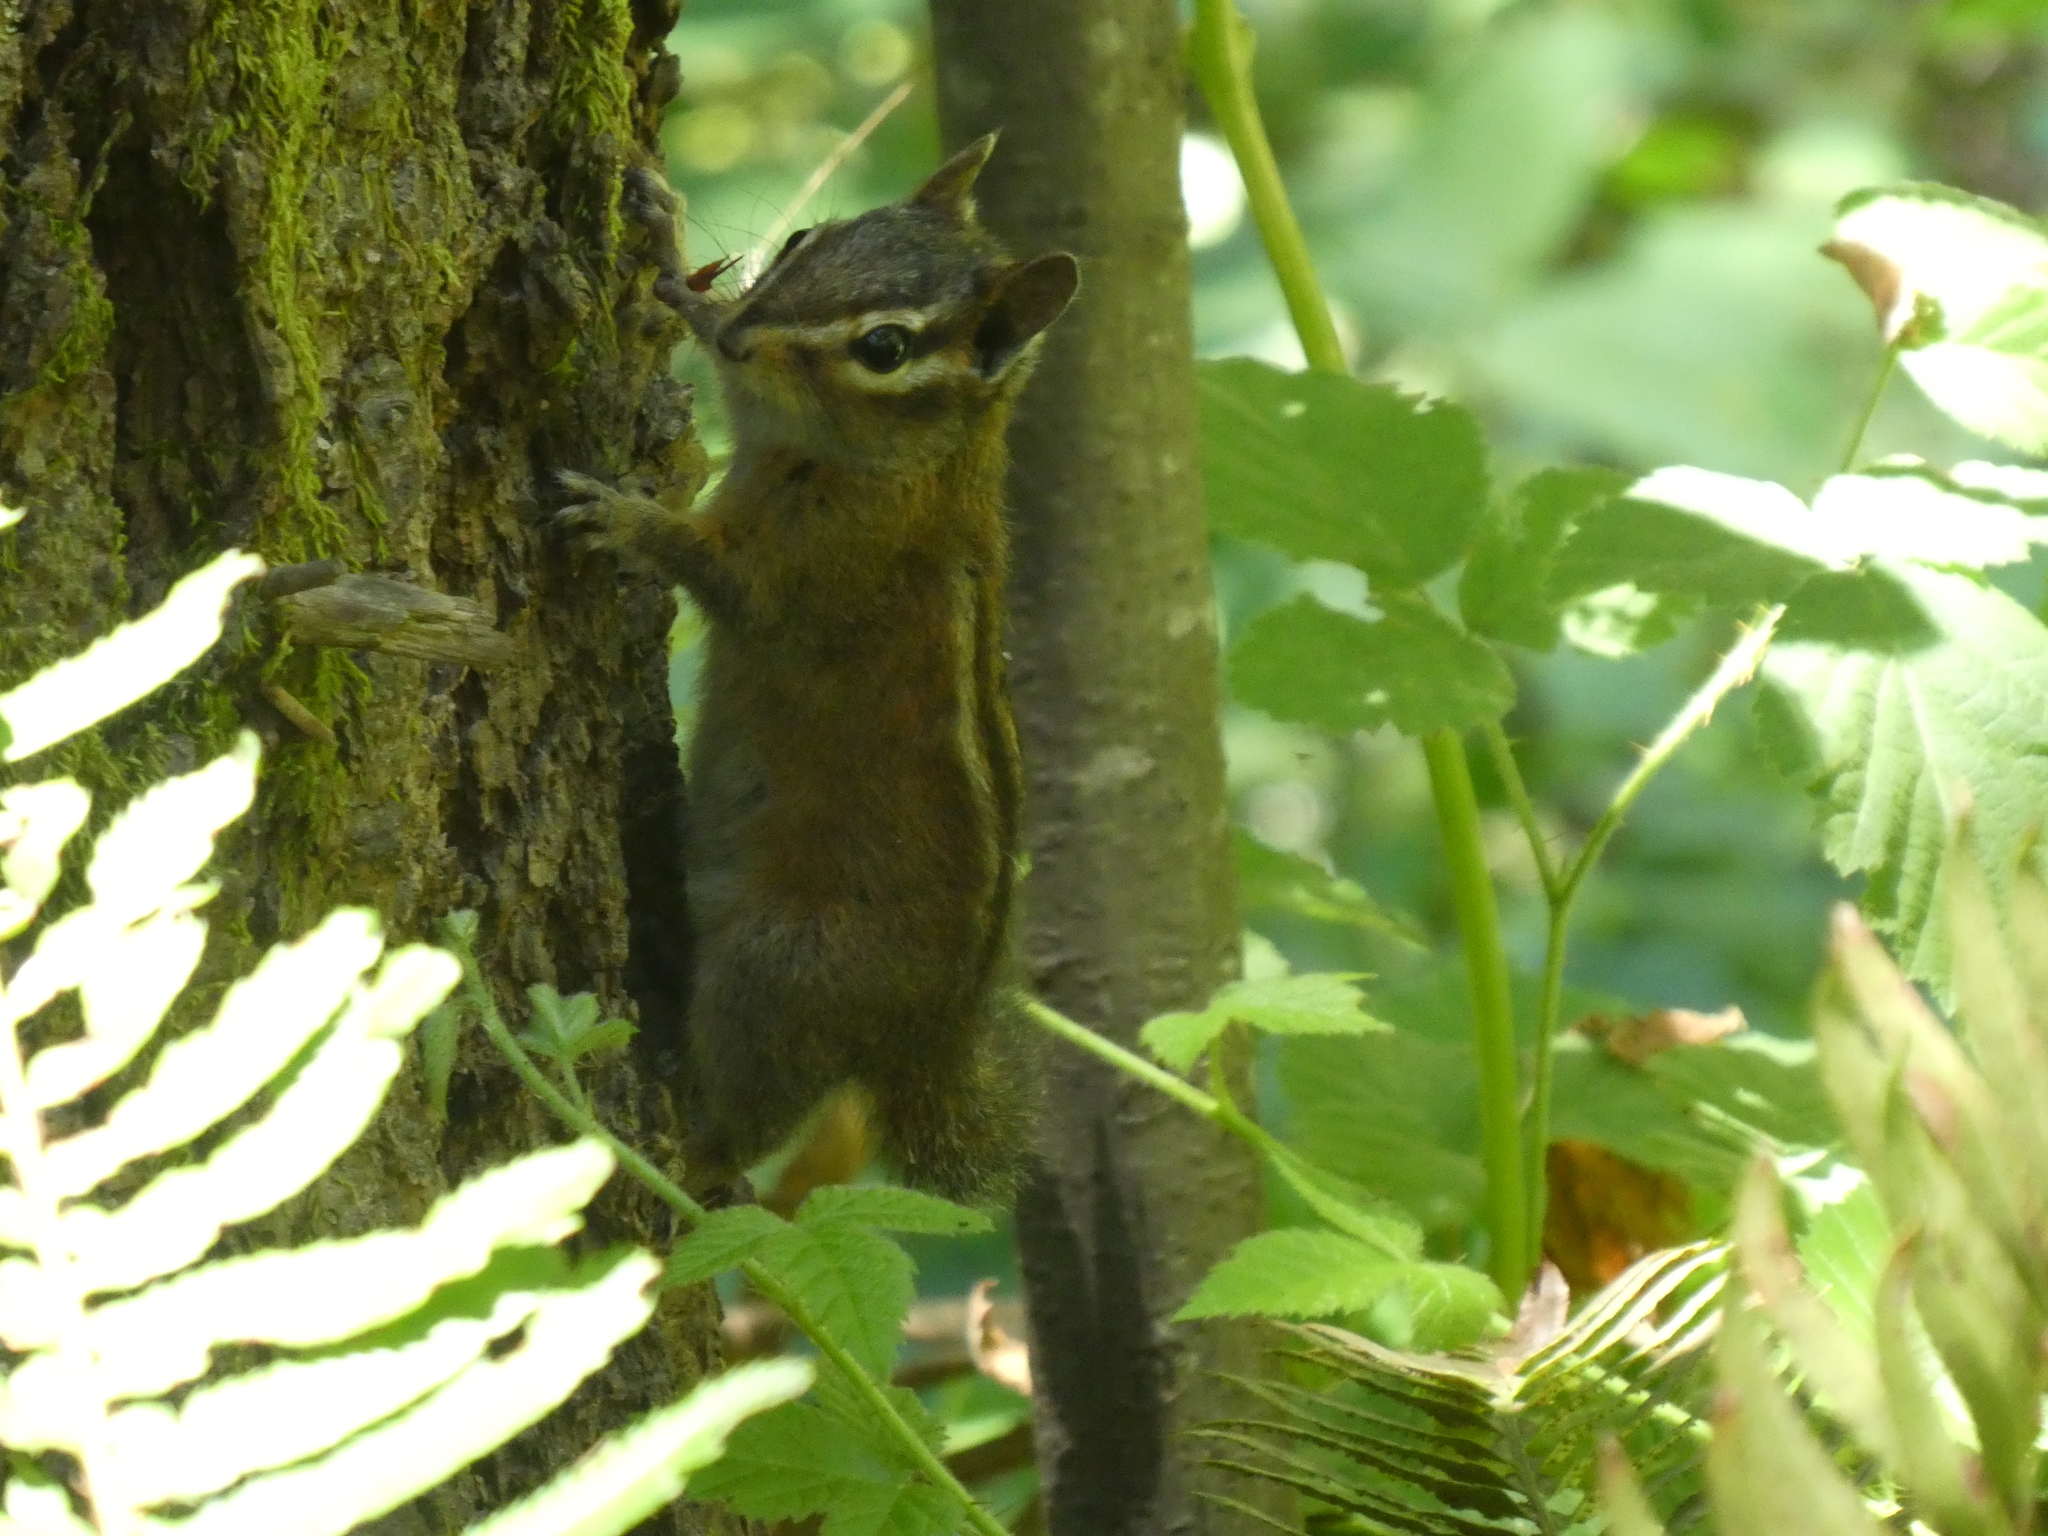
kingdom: Animalia
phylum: Chordata
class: Mammalia
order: Rodentia
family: Sciuridae
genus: Tamias
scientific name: Tamias sonomae
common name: Sonoma chipmunk
